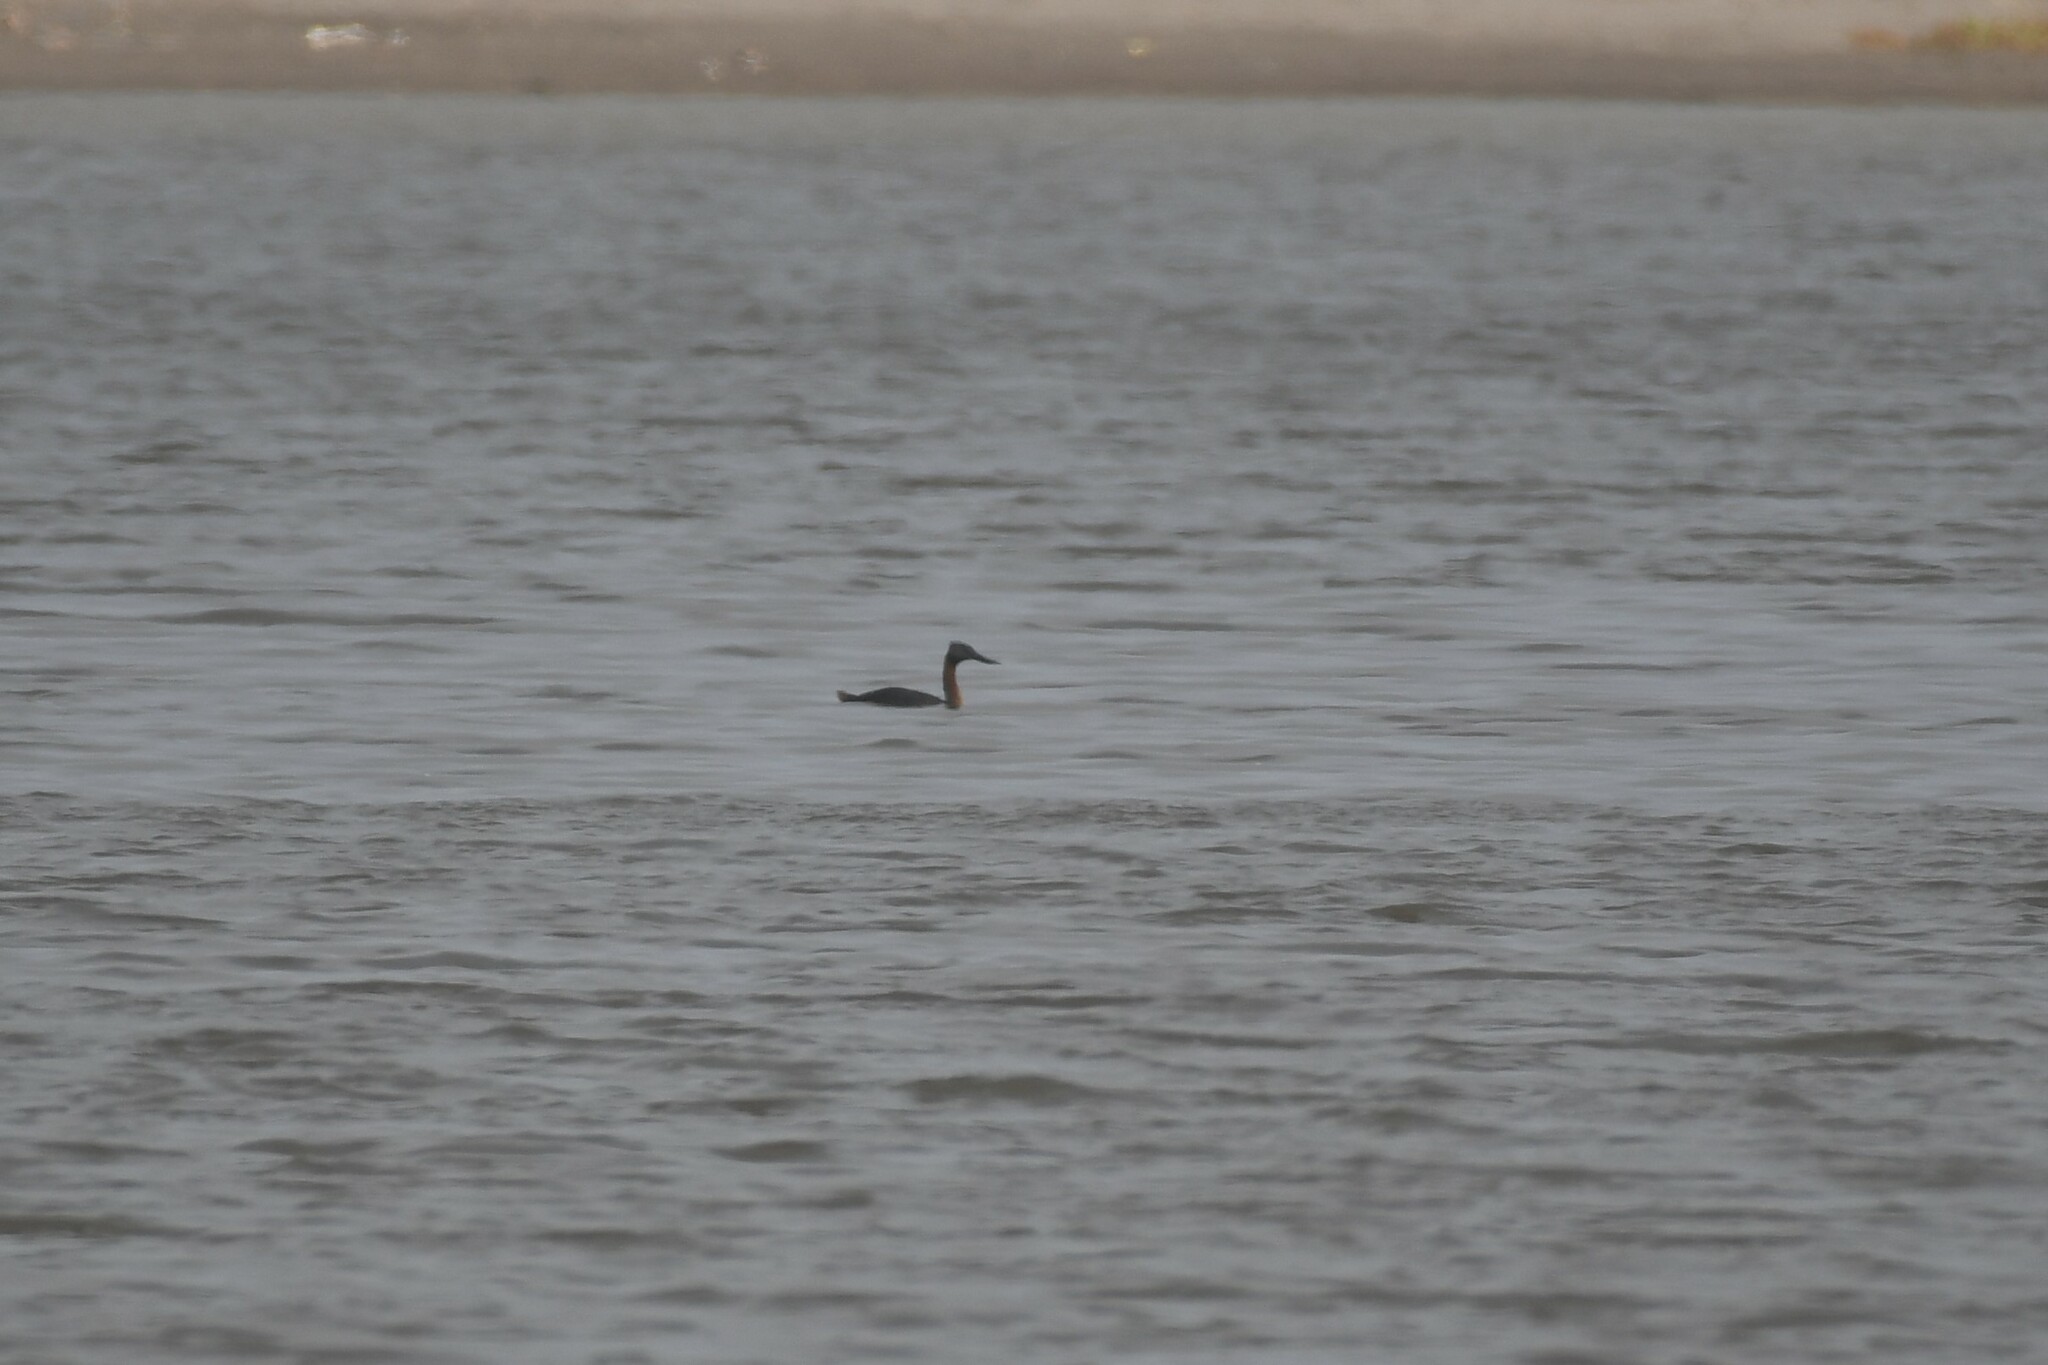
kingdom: Animalia
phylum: Chordata
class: Aves
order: Podicipediformes
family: Podicipedidae
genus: Podiceps
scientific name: Podiceps major
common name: Great grebe
